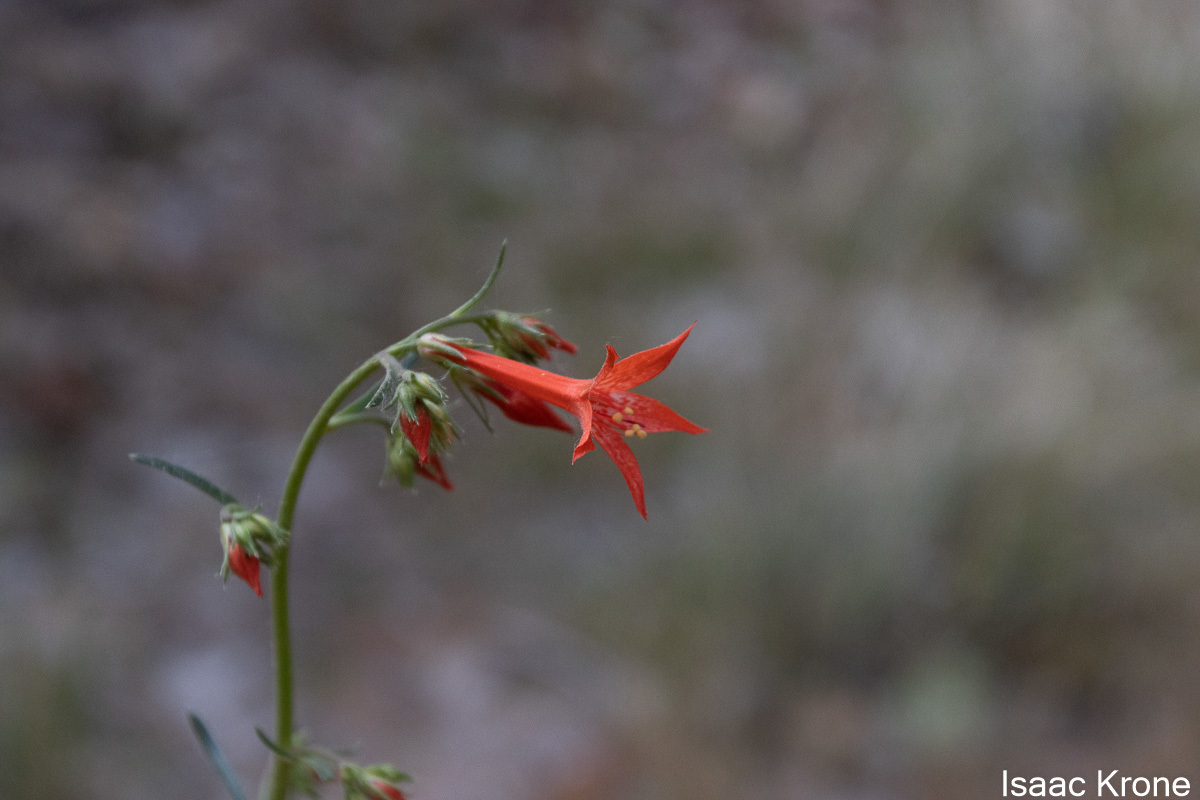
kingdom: Plantae
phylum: Tracheophyta
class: Magnoliopsida
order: Ericales
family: Polemoniaceae
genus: Ipomopsis
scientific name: Ipomopsis aggregata
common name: Scarlet gilia
